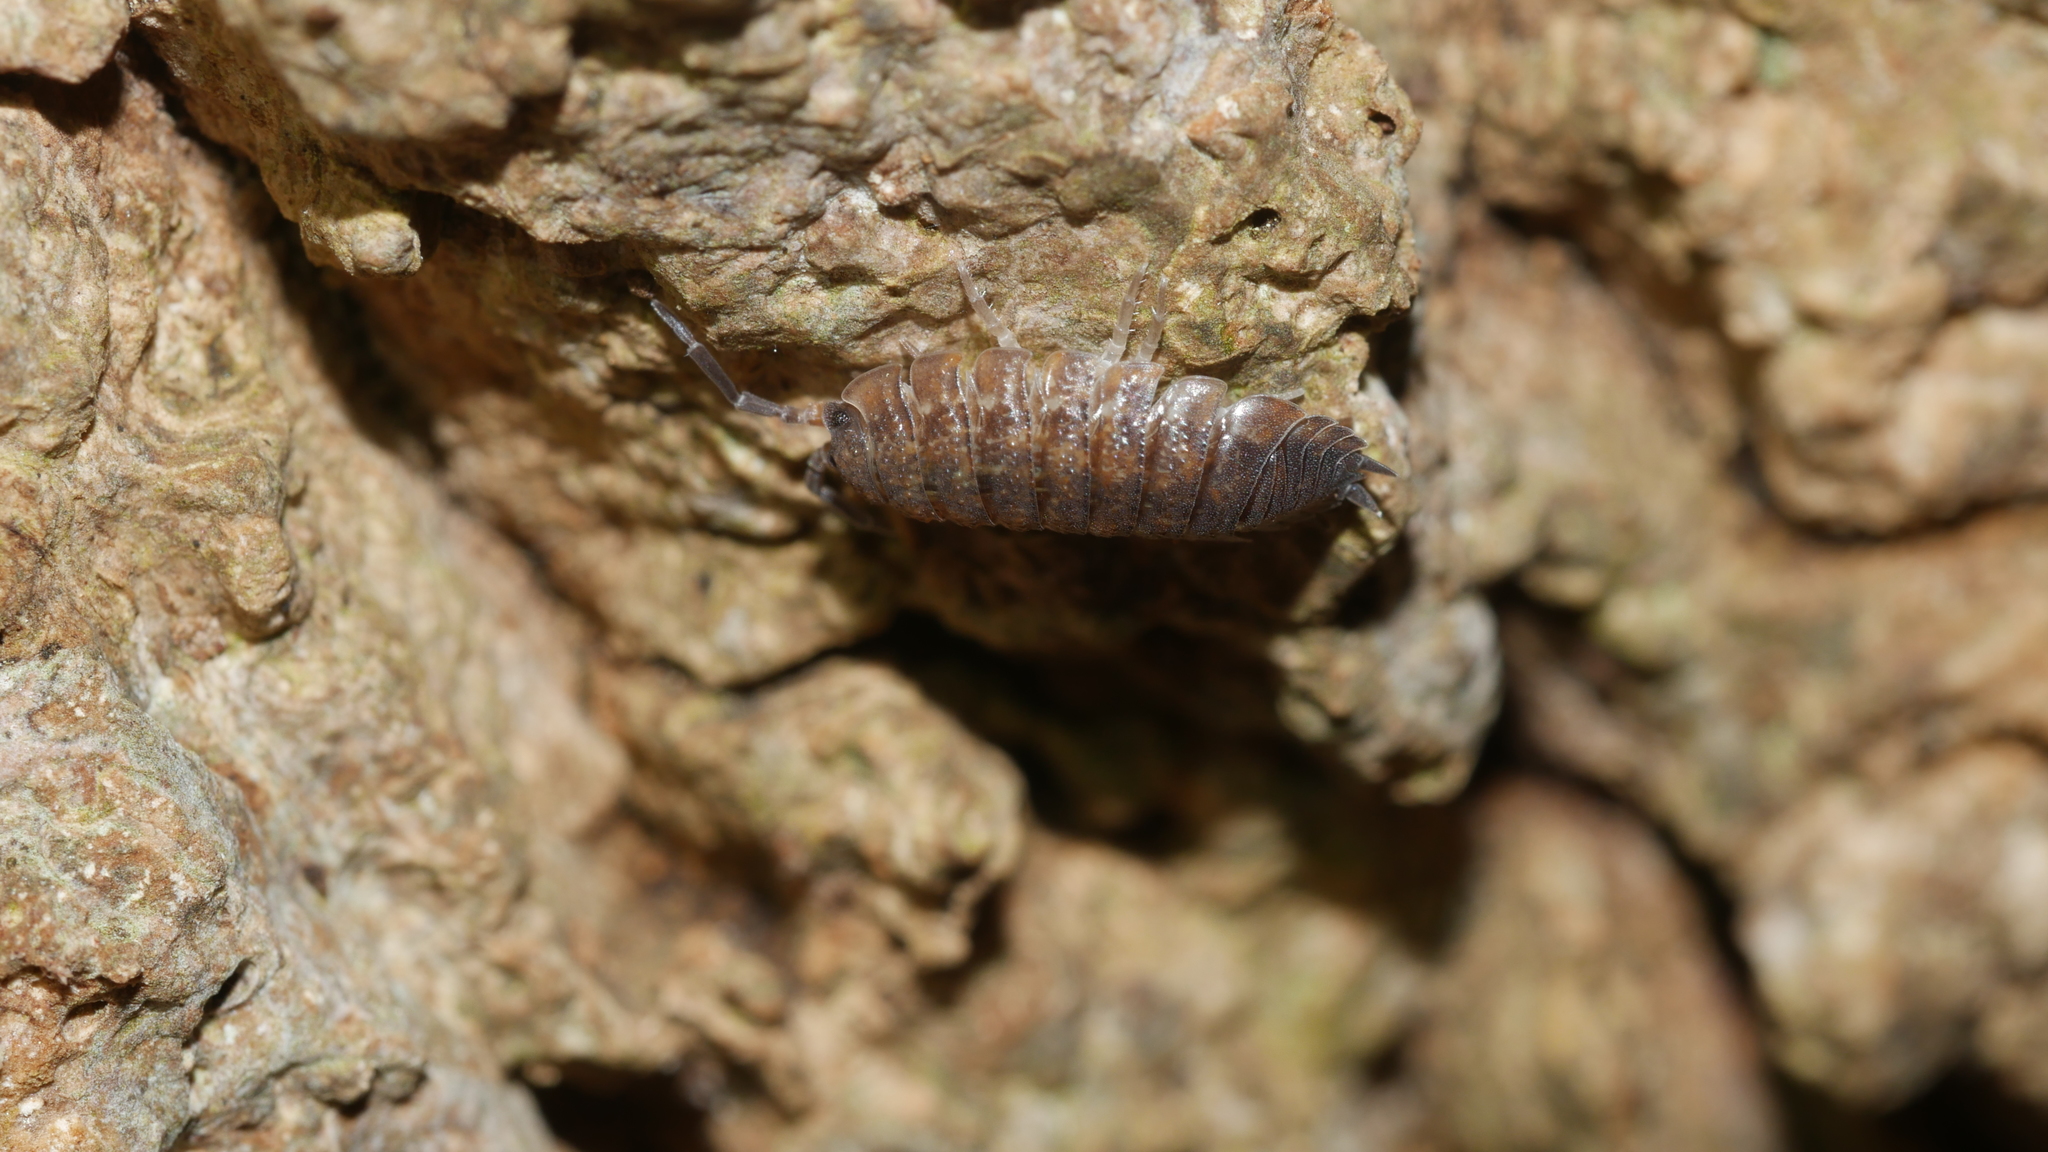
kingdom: Animalia
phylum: Arthropoda
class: Malacostraca
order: Isopoda
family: Porcellionidae
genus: Porcellio
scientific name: Porcellio scaber
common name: Common rough woodlouse
